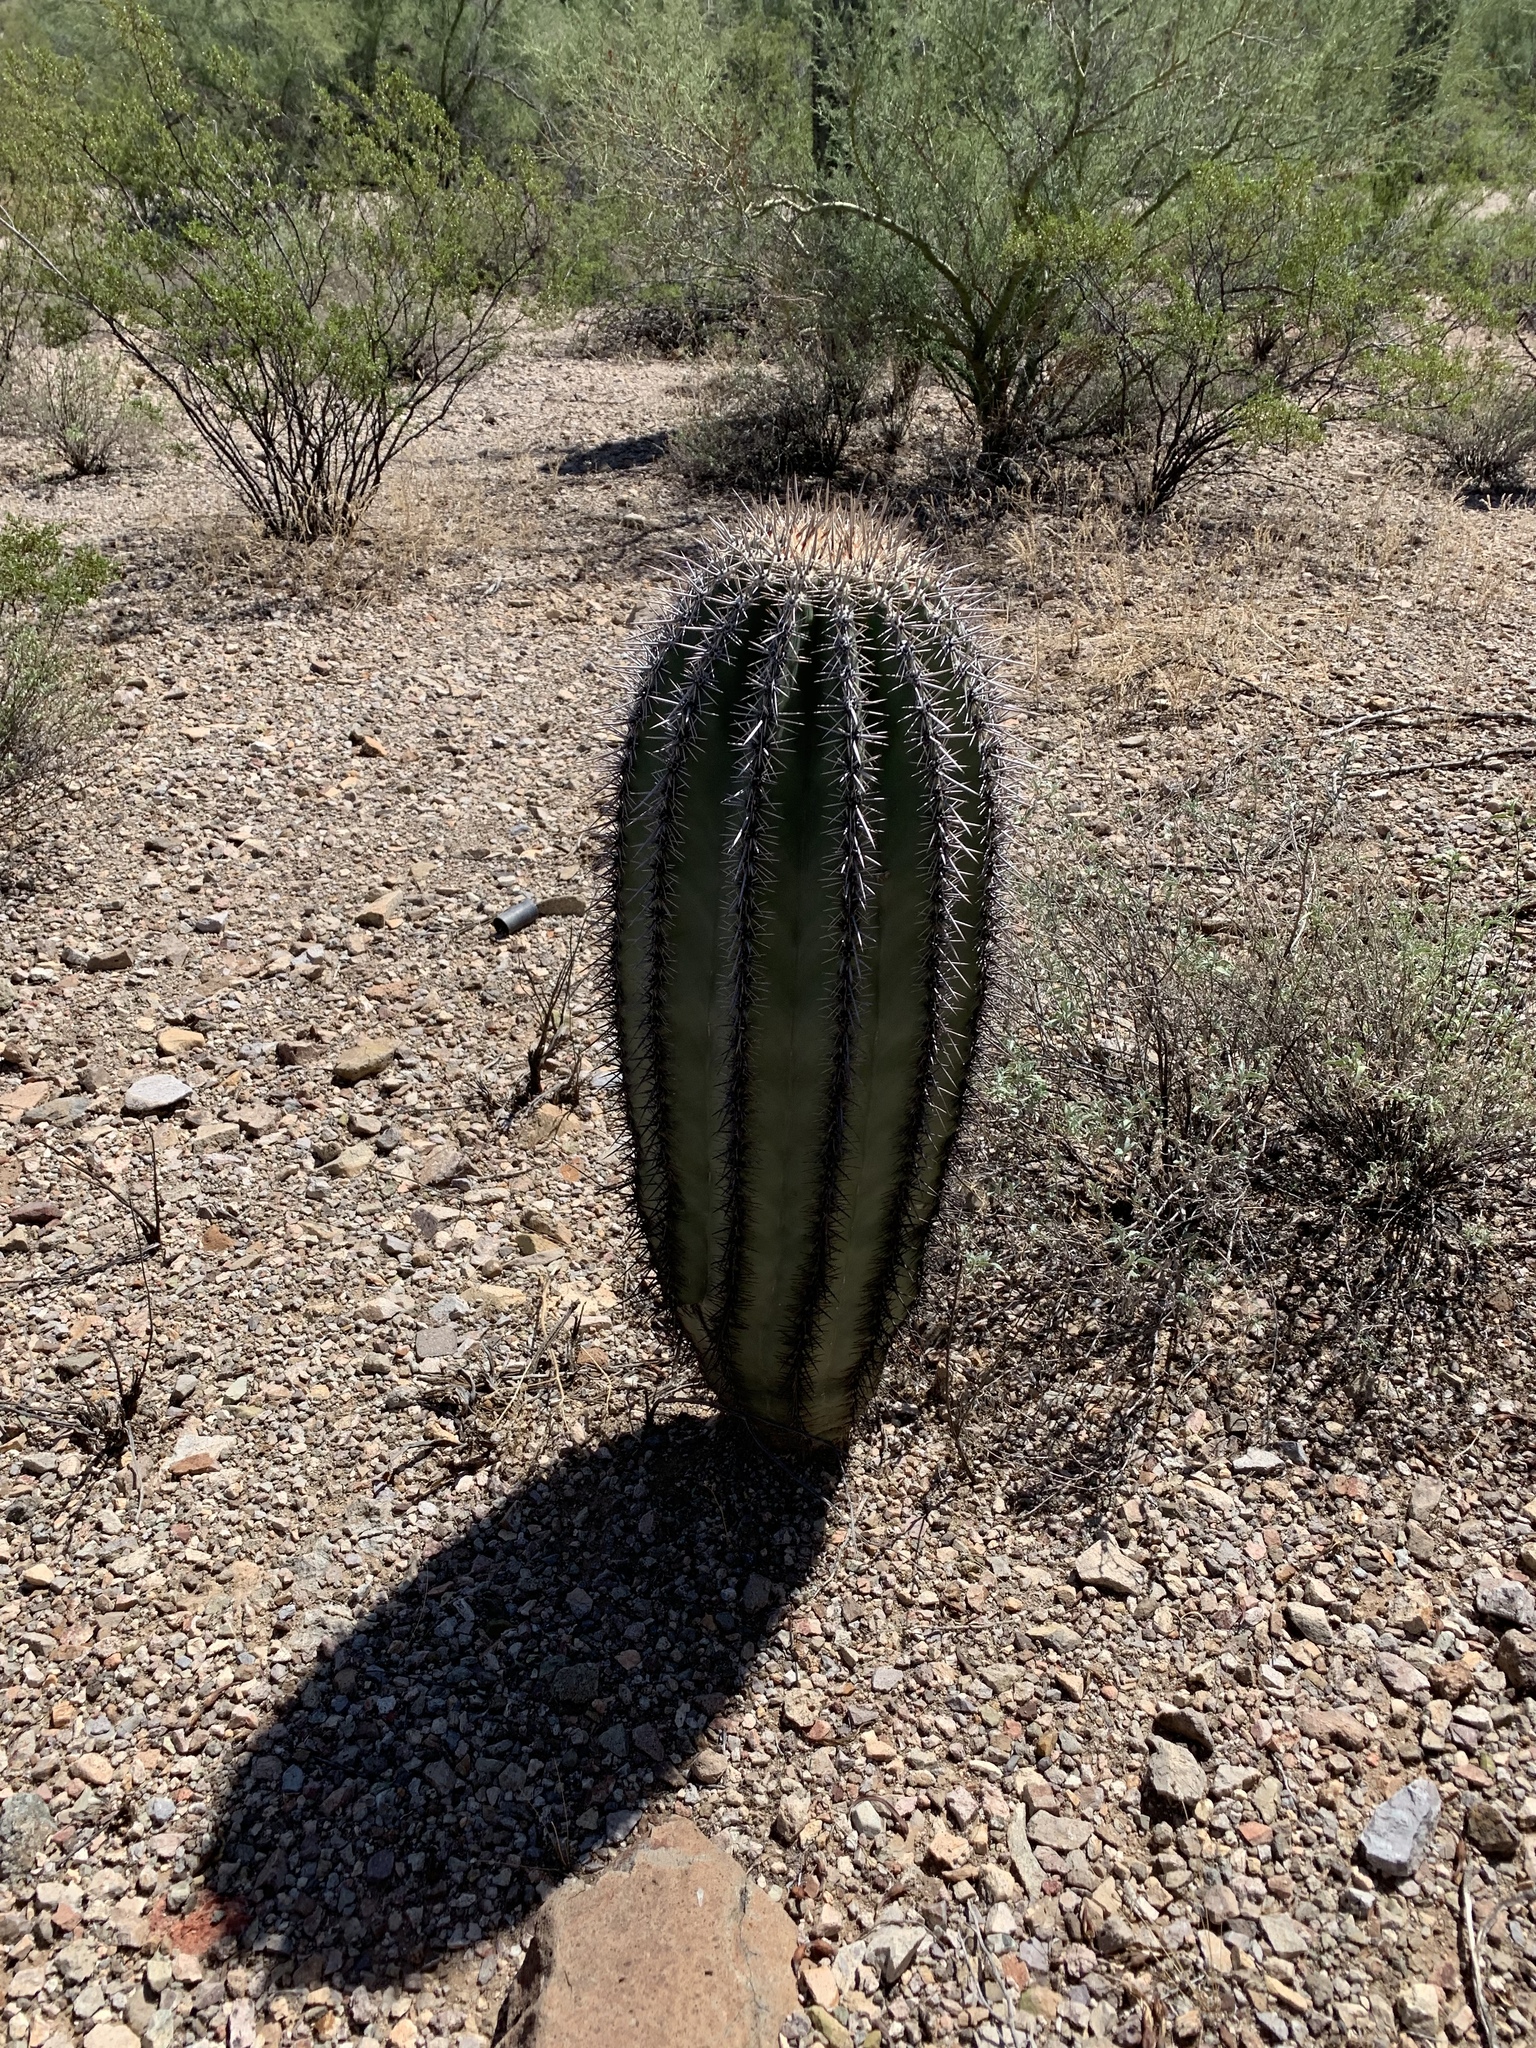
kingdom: Plantae
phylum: Tracheophyta
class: Magnoliopsida
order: Caryophyllales
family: Cactaceae
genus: Carnegiea
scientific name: Carnegiea gigantea
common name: Saguaro
